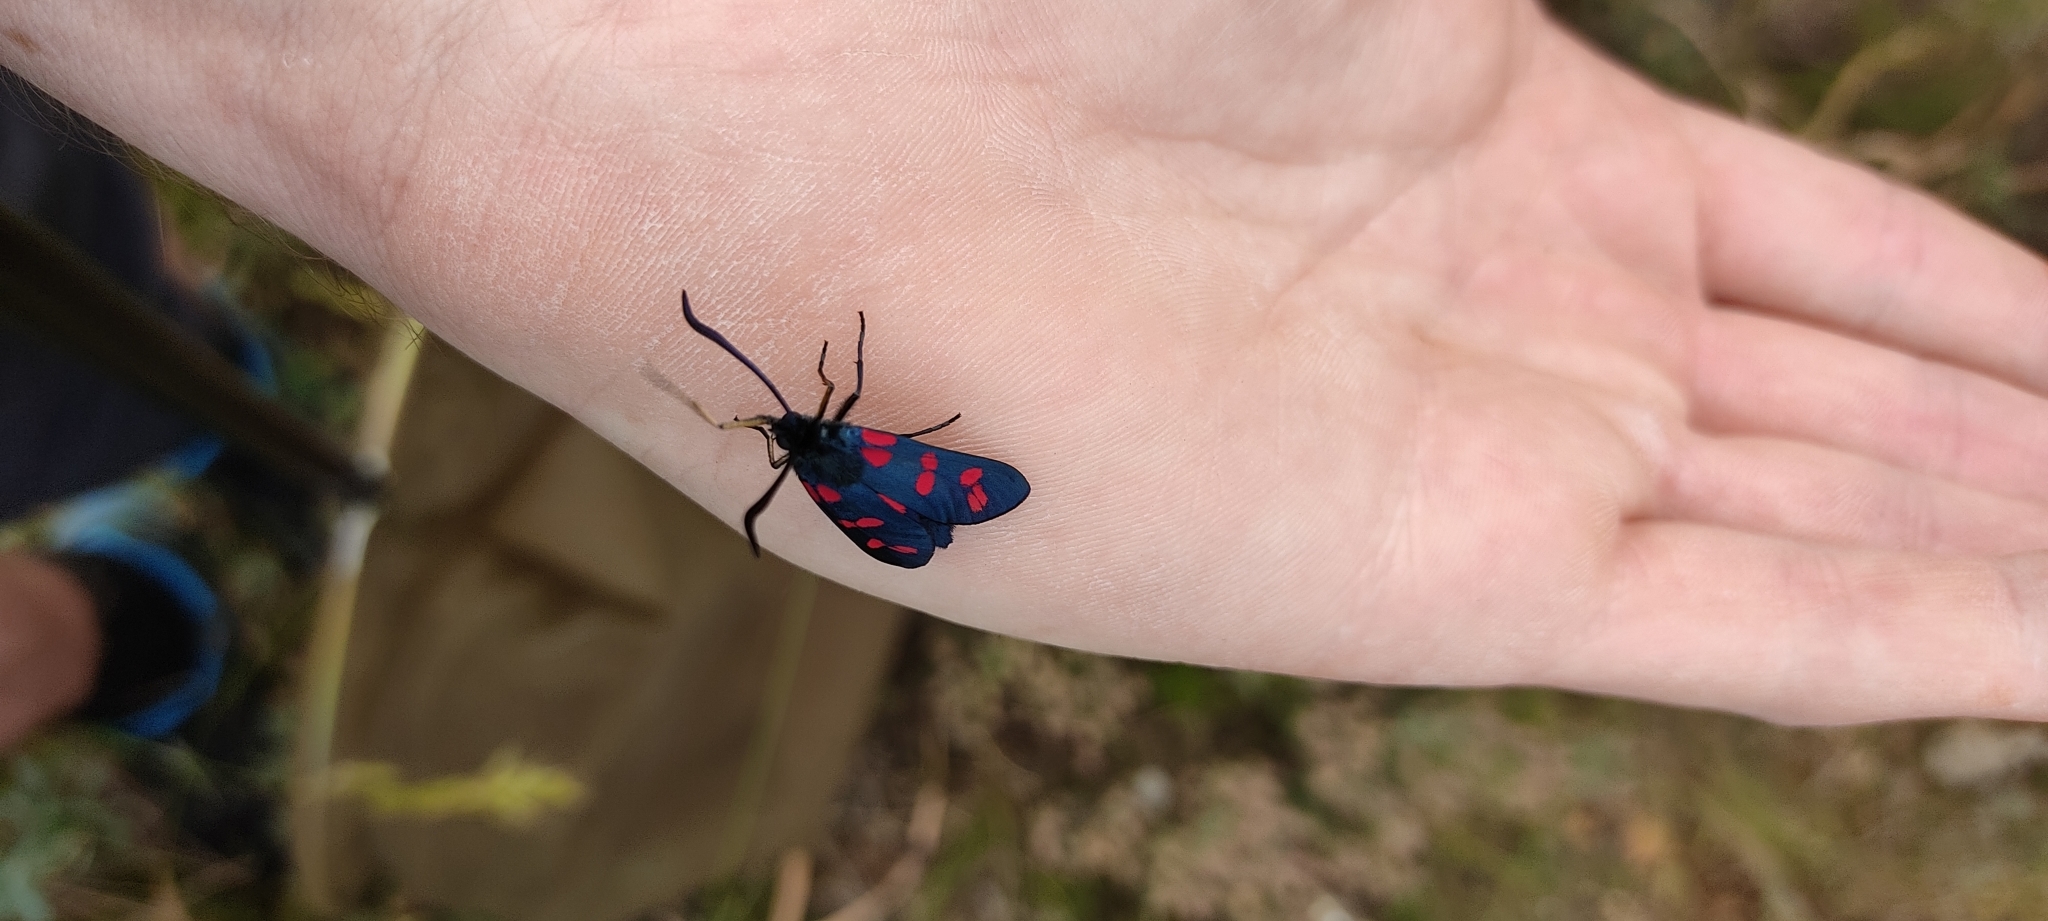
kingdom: Animalia
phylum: Arthropoda
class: Insecta
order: Lepidoptera
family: Zygaenidae
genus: Zygaena
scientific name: Zygaena filipendulae
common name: Six-spot burnet
